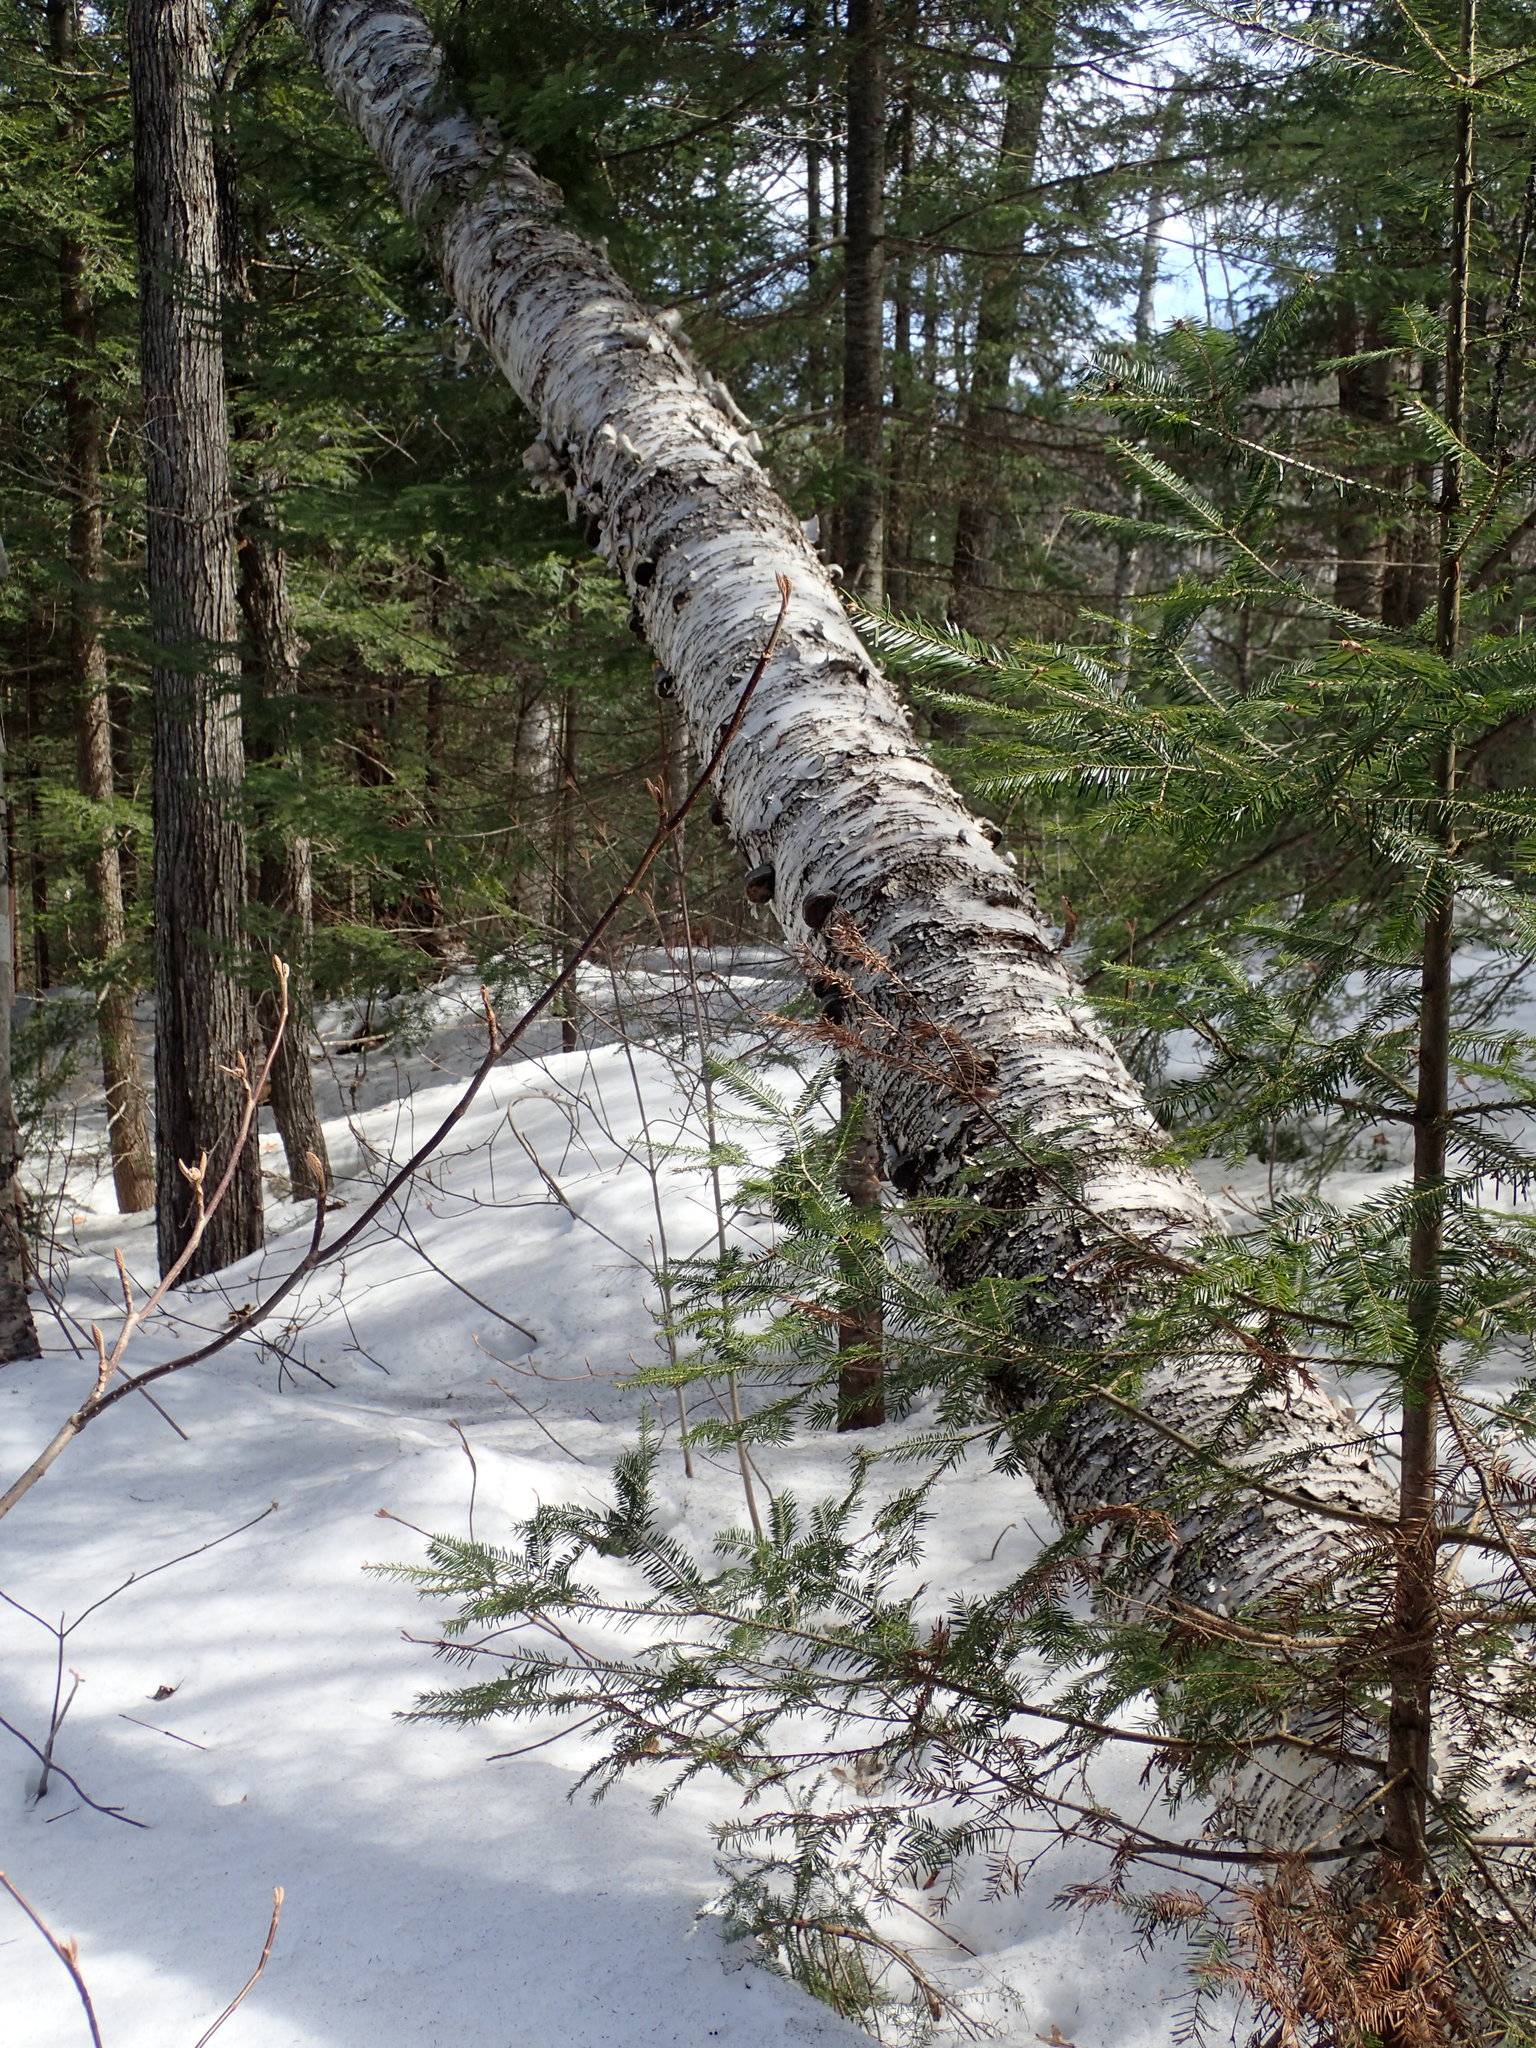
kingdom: Plantae
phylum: Tracheophyta
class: Magnoliopsida
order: Fagales
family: Betulaceae
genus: Betula
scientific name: Betula papyrifera
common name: Paper birch
